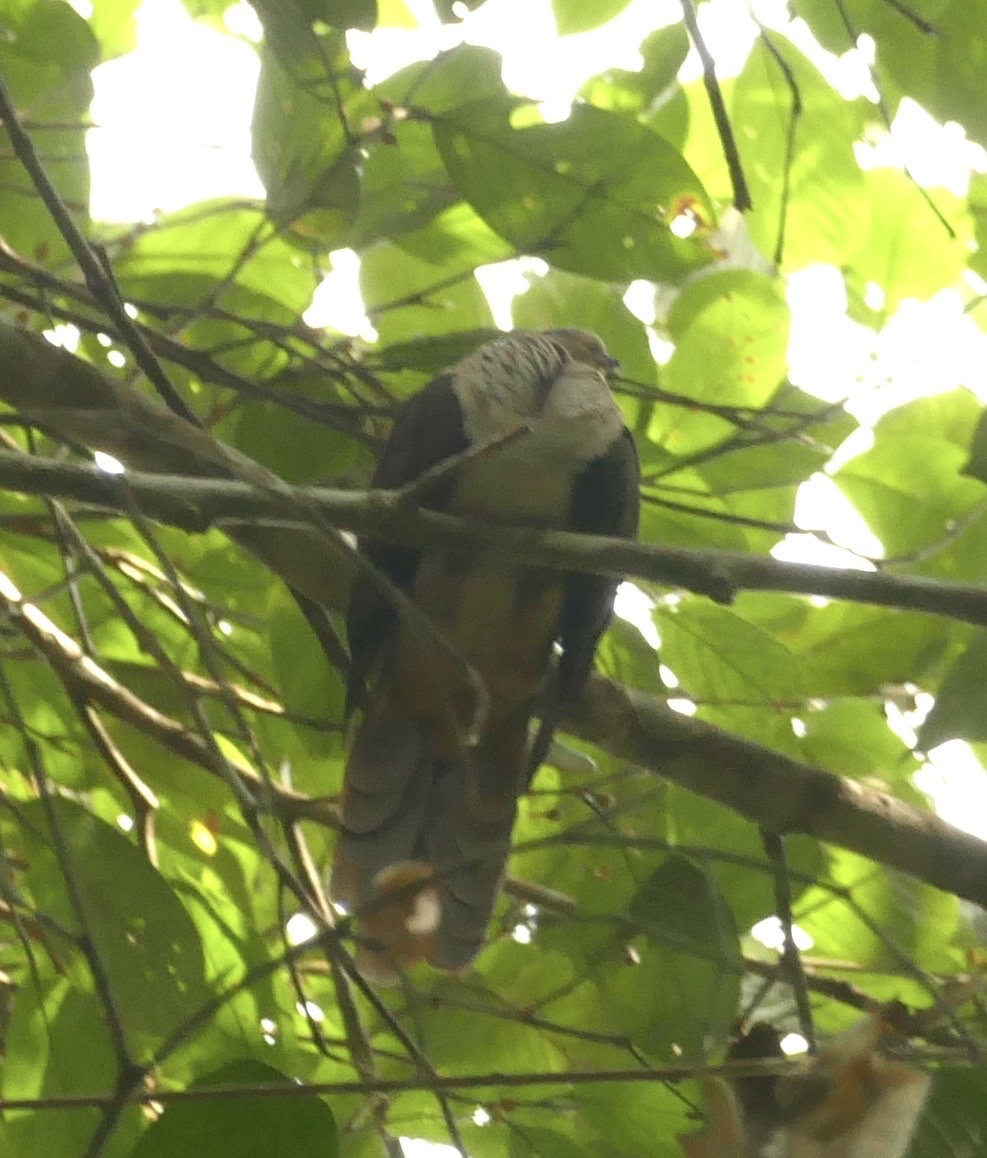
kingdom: Animalia
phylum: Chordata
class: Aves
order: Columbiformes
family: Columbidae
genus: Macropygia
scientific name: Macropygia doreya
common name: Sultan's cuckoo-dove
